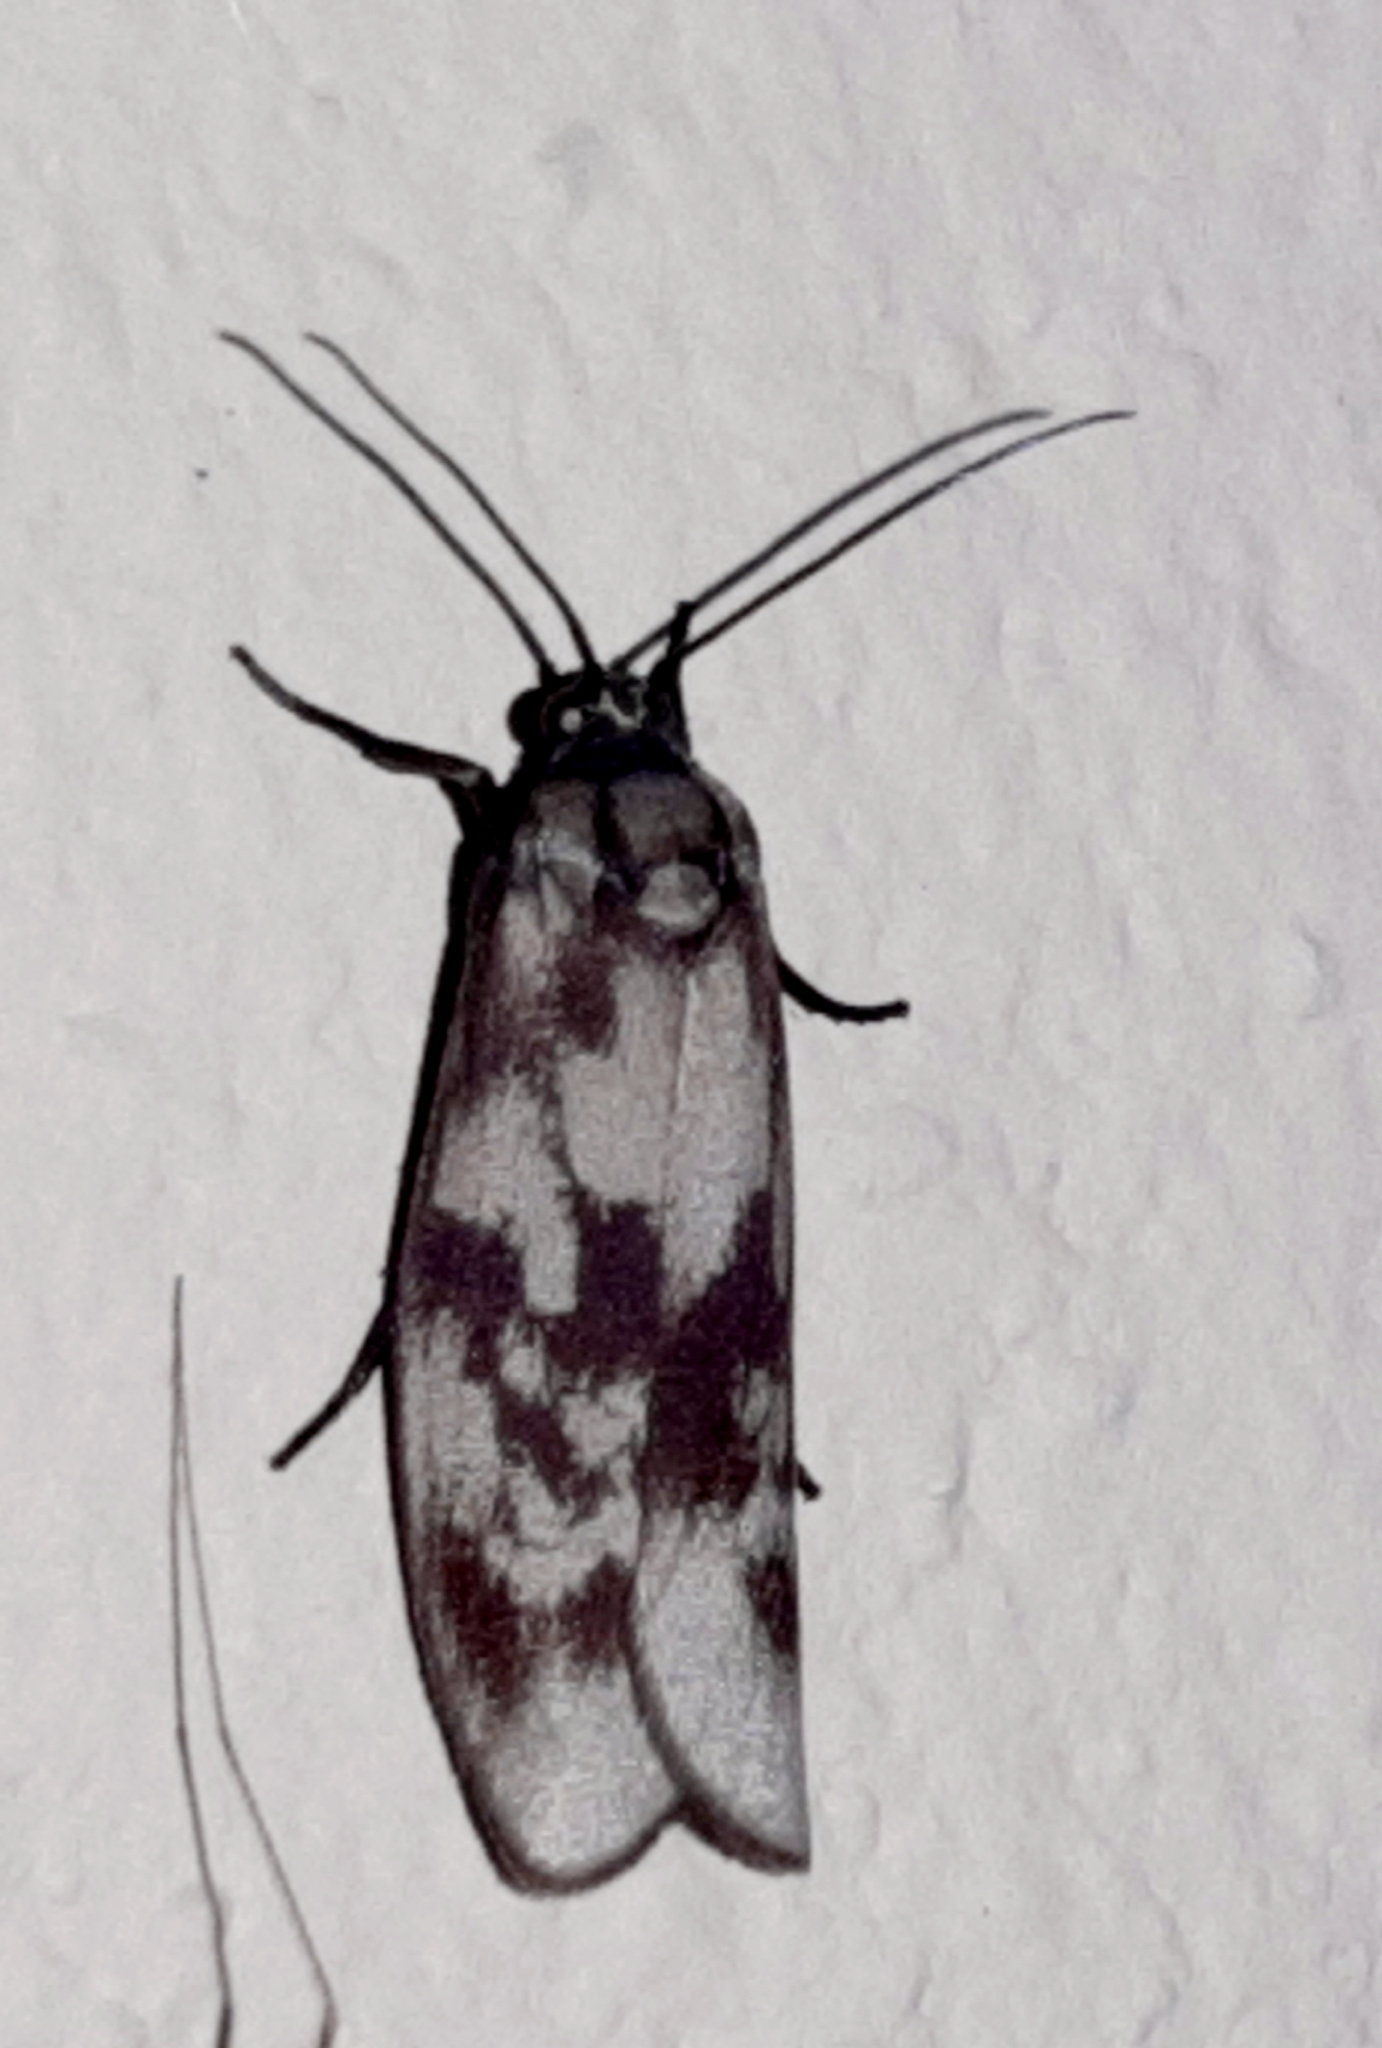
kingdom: Animalia
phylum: Arthropoda
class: Insecta
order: Lepidoptera
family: Urodidae
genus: Urodus
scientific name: Urodus
